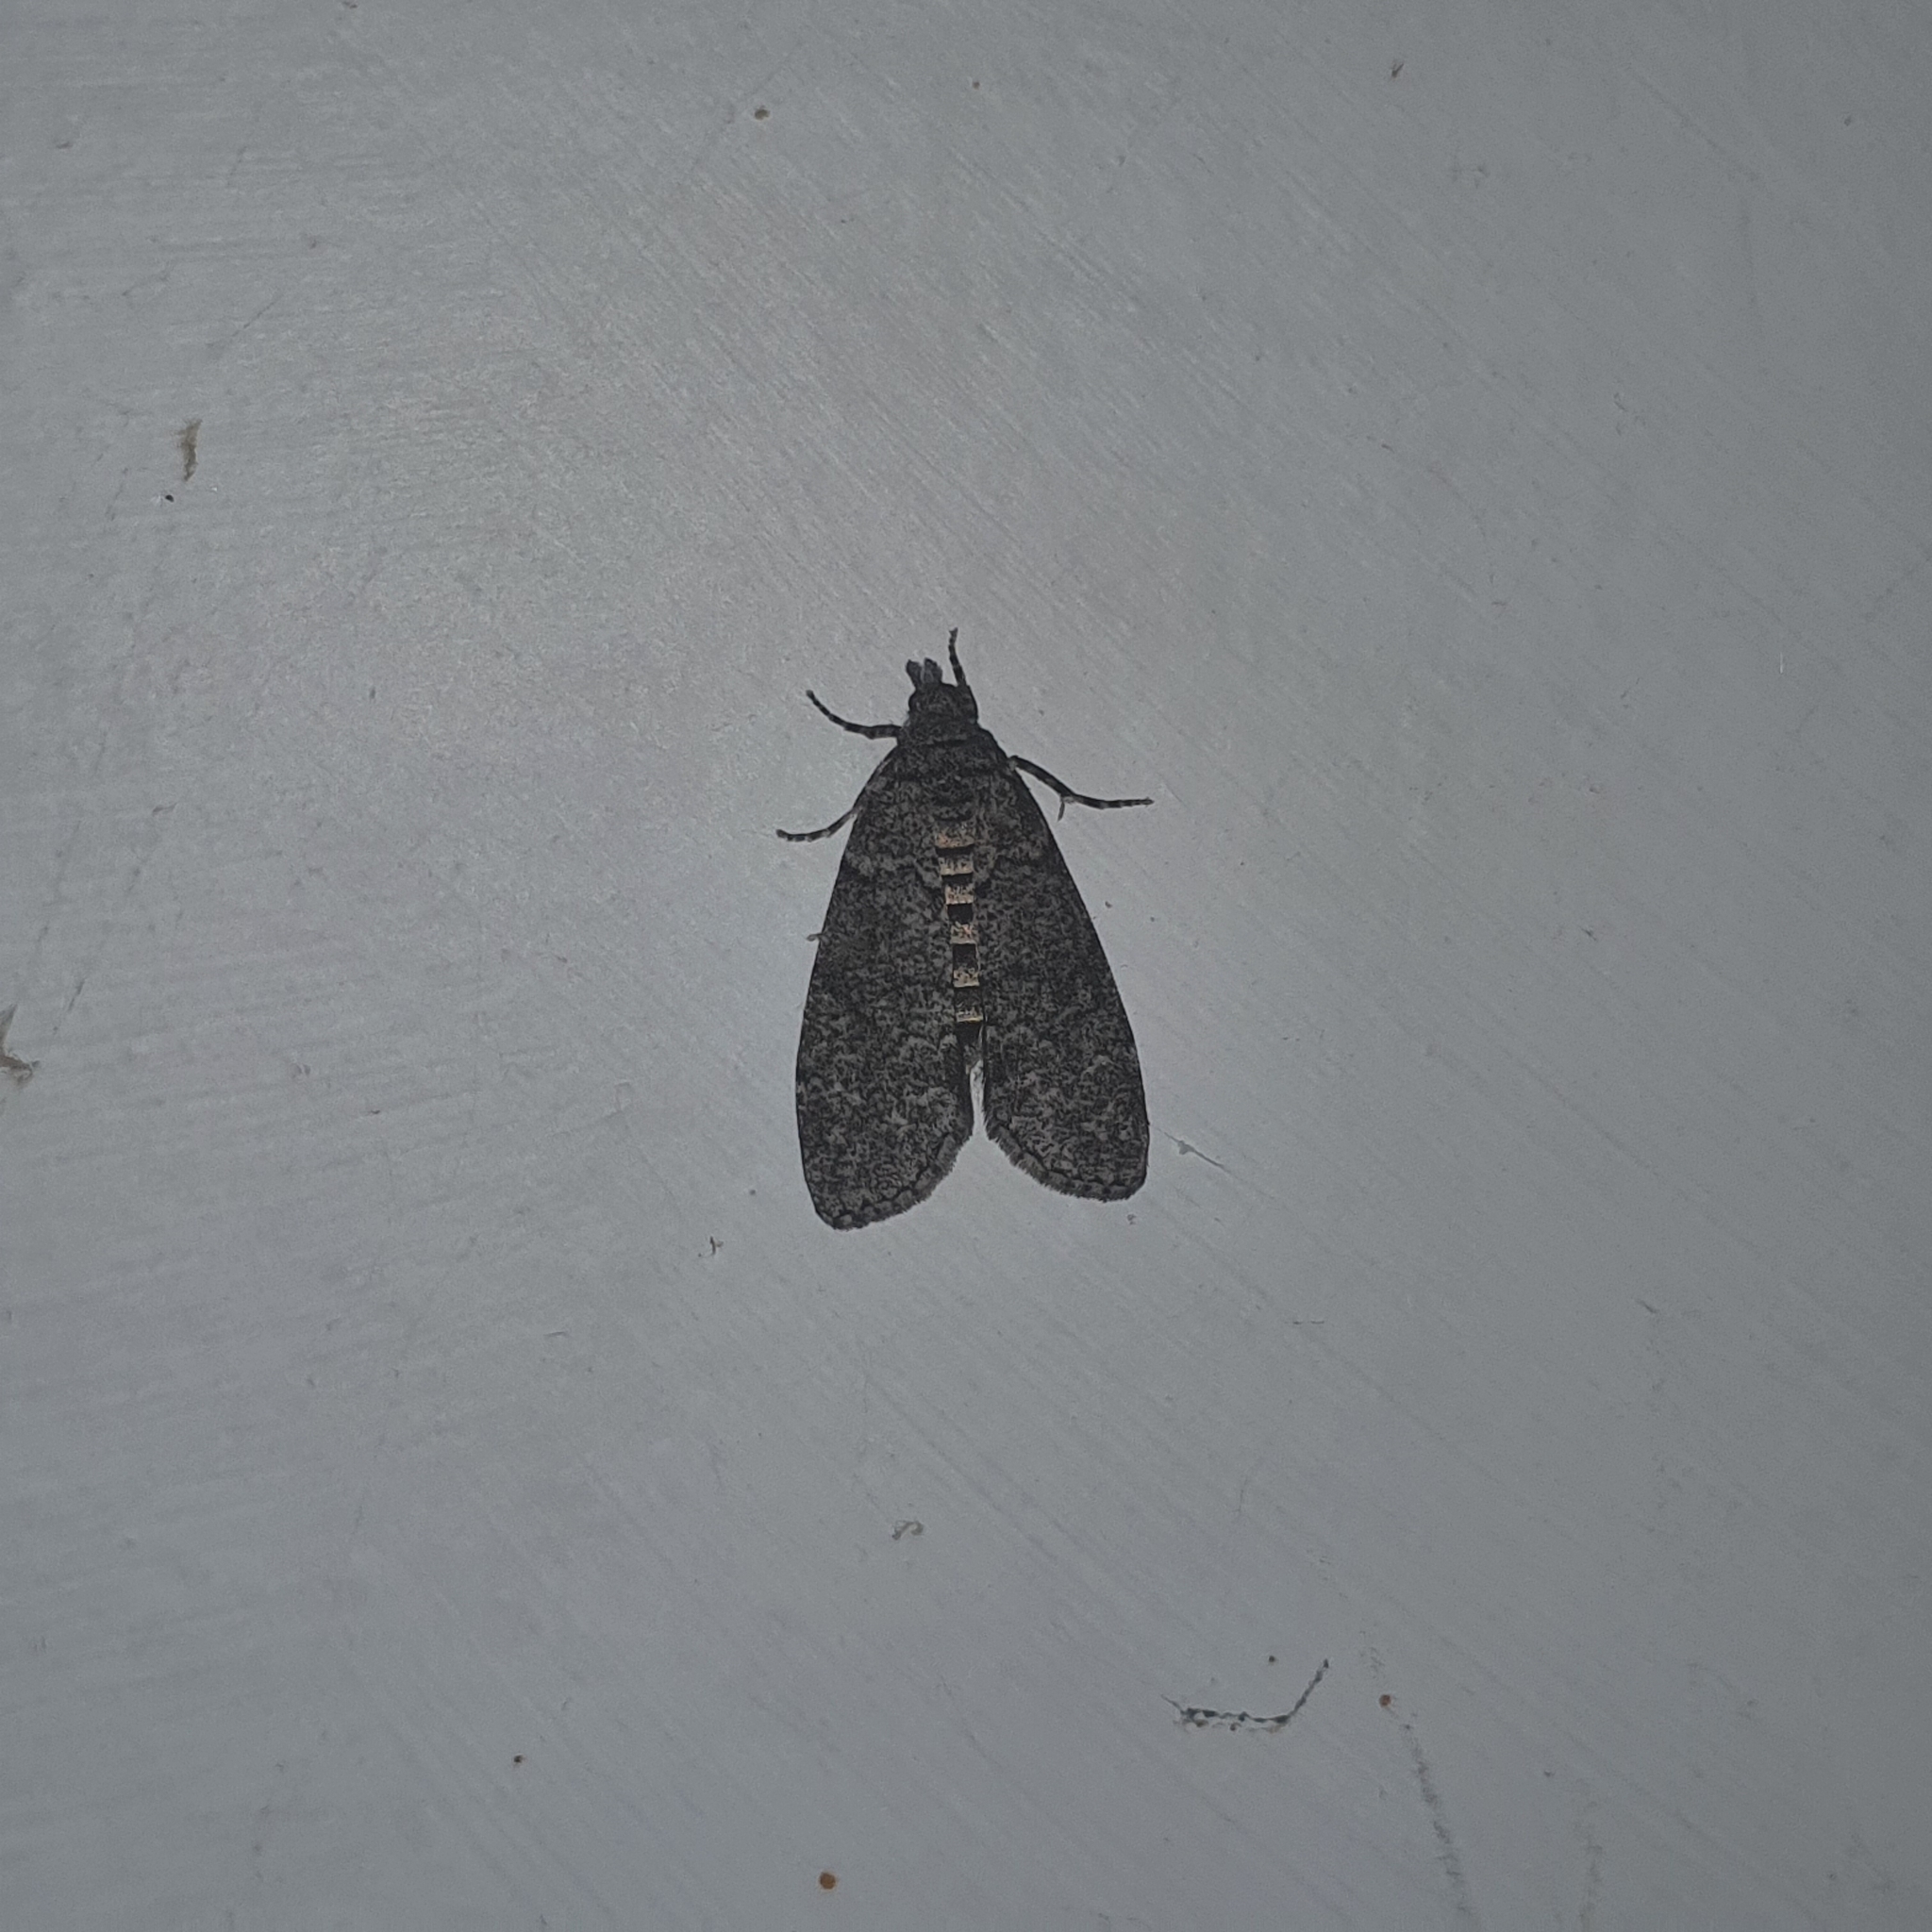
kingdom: Animalia
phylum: Arthropoda
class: Insecta
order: Lepidoptera
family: Geometridae
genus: Smyriodes
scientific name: Smyriodes trigramma
